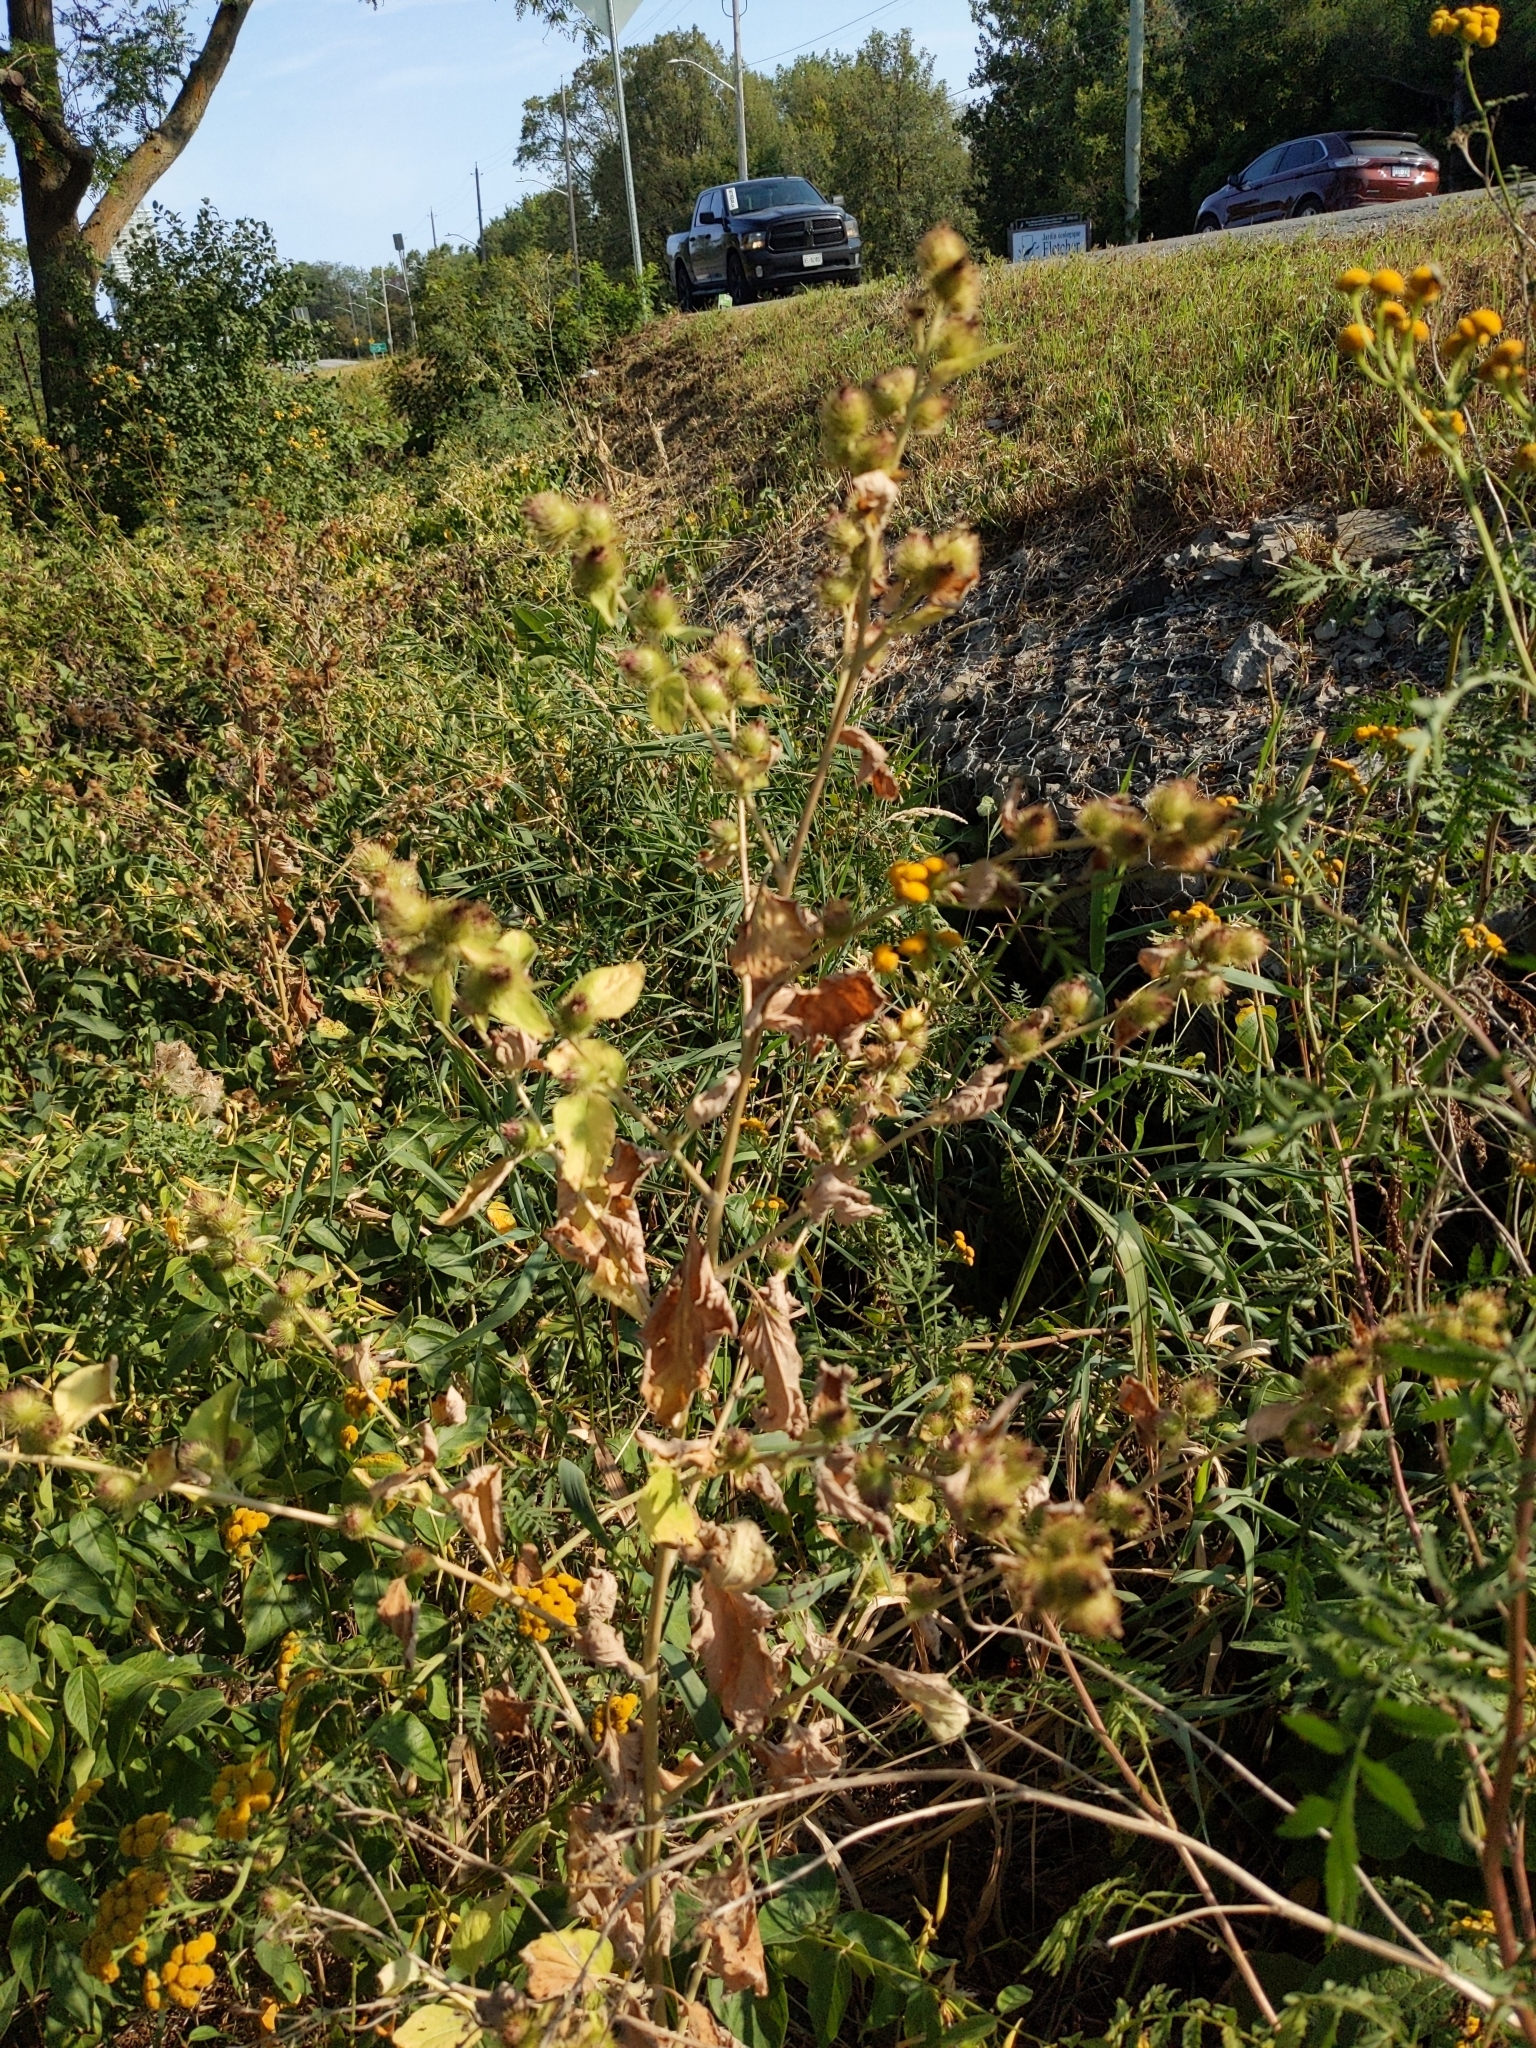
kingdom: Plantae
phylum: Tracheophyta
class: Magnoliopsida
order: Asterales
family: Asteraceae
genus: Arctium
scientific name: Arctium minus
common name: Lesser burdock
